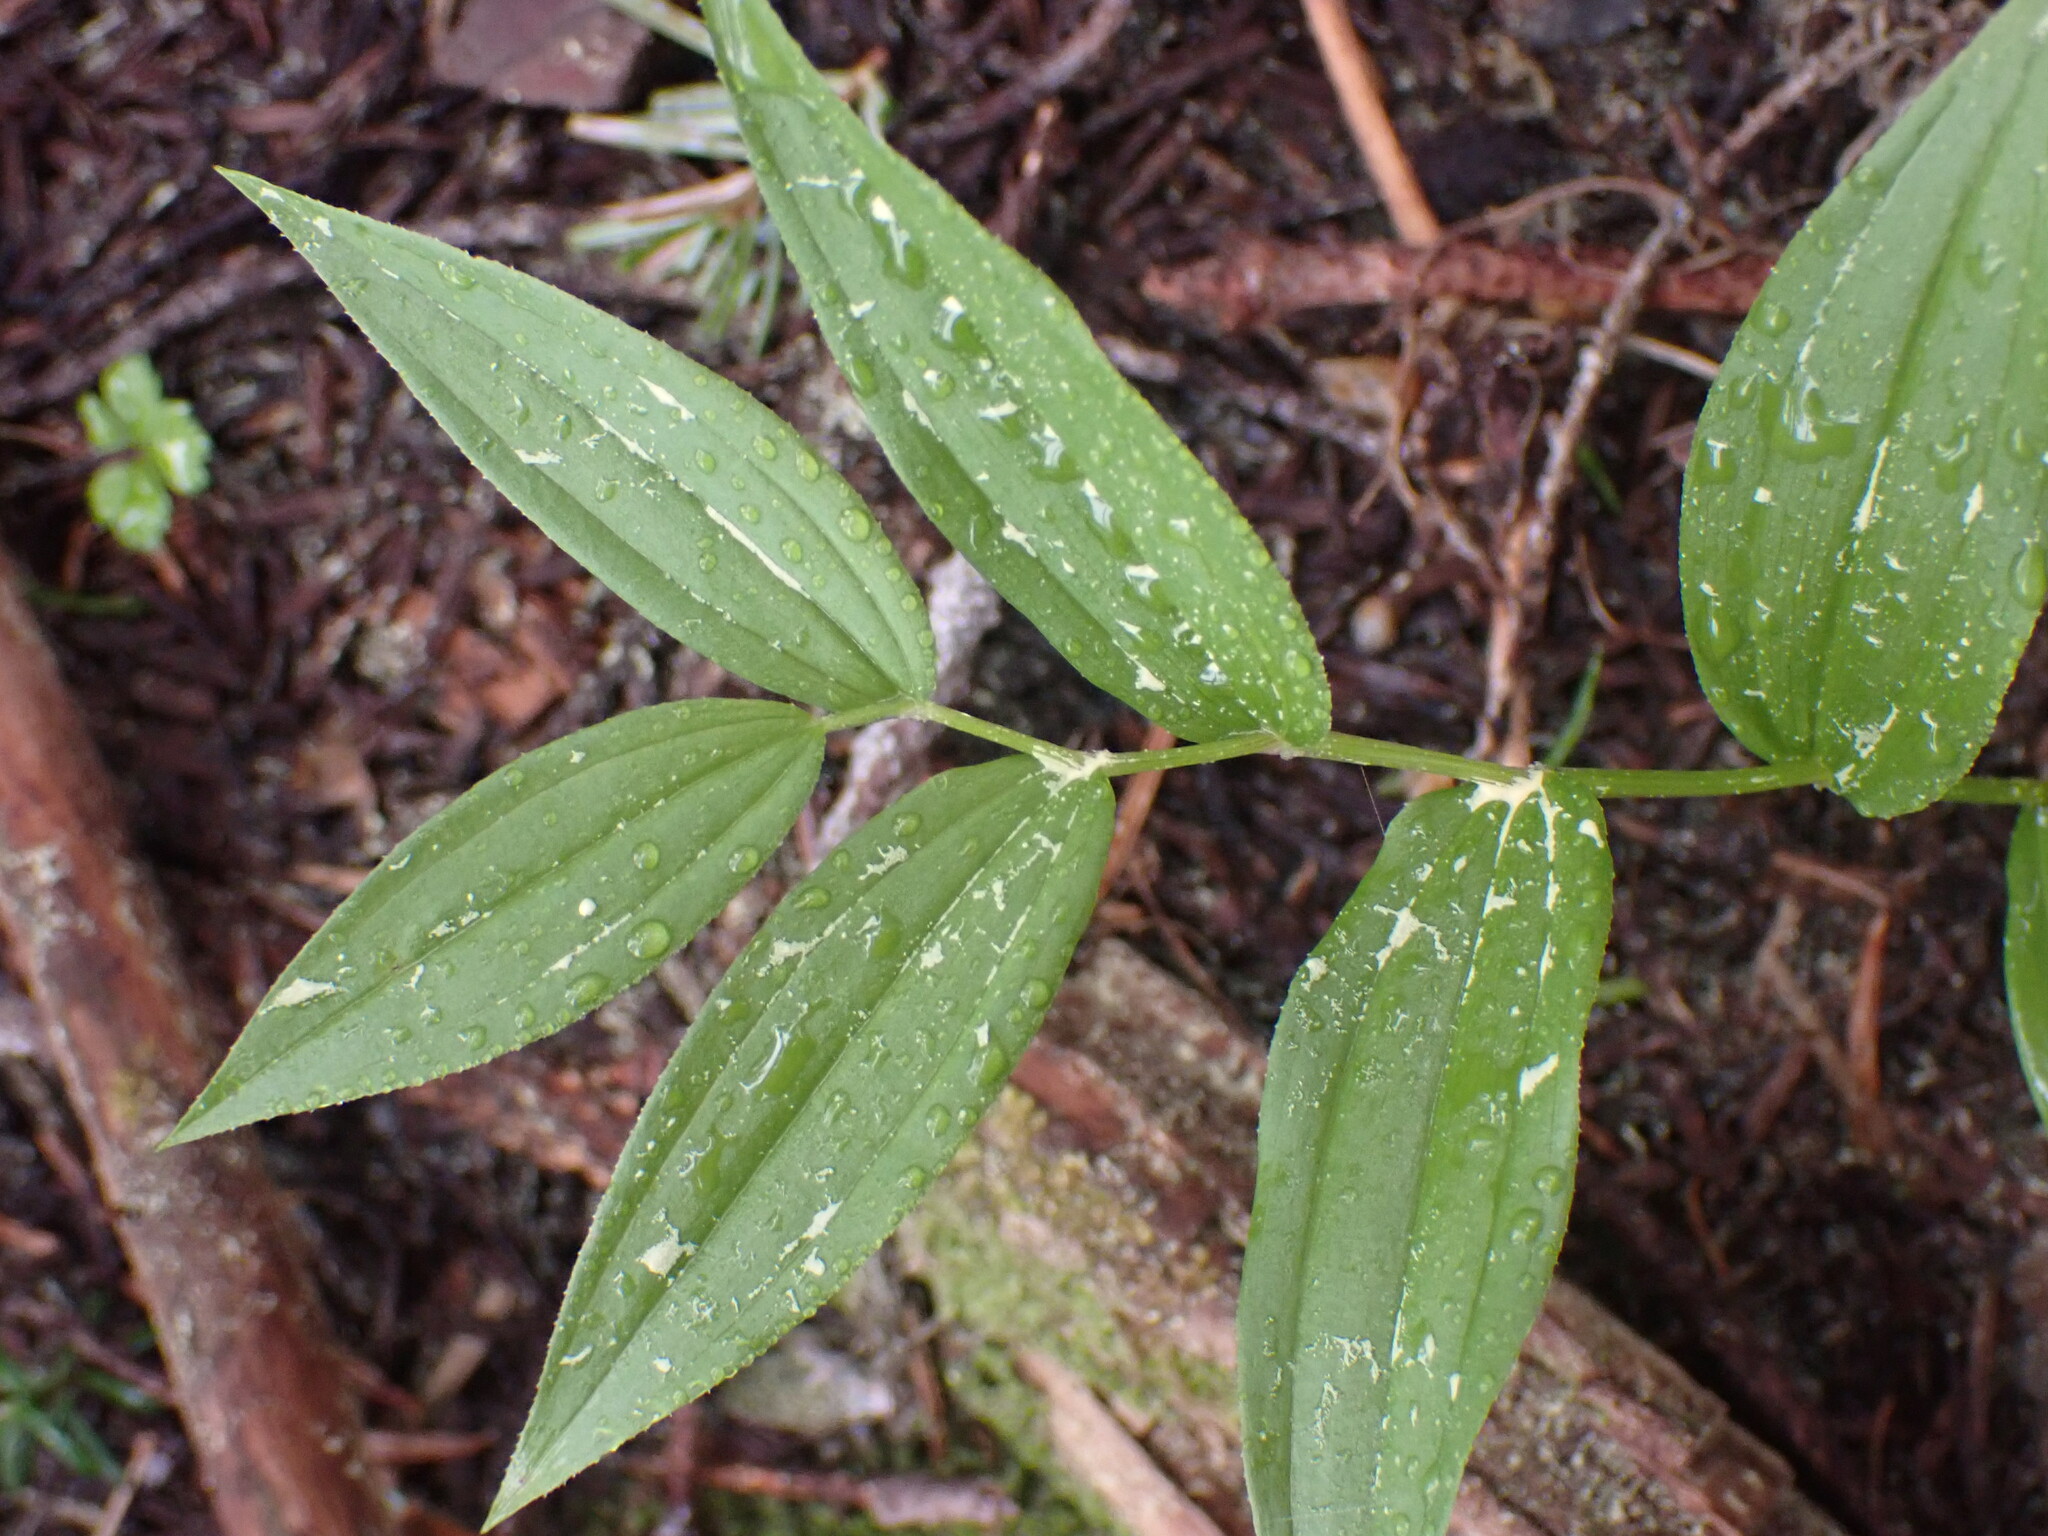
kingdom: Plantae
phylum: Tracheophyta
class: Liliopsida
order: Liliales
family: Liliaceae
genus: Streptopus
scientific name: Streptopus lanceolatus
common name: Rose mandarin
